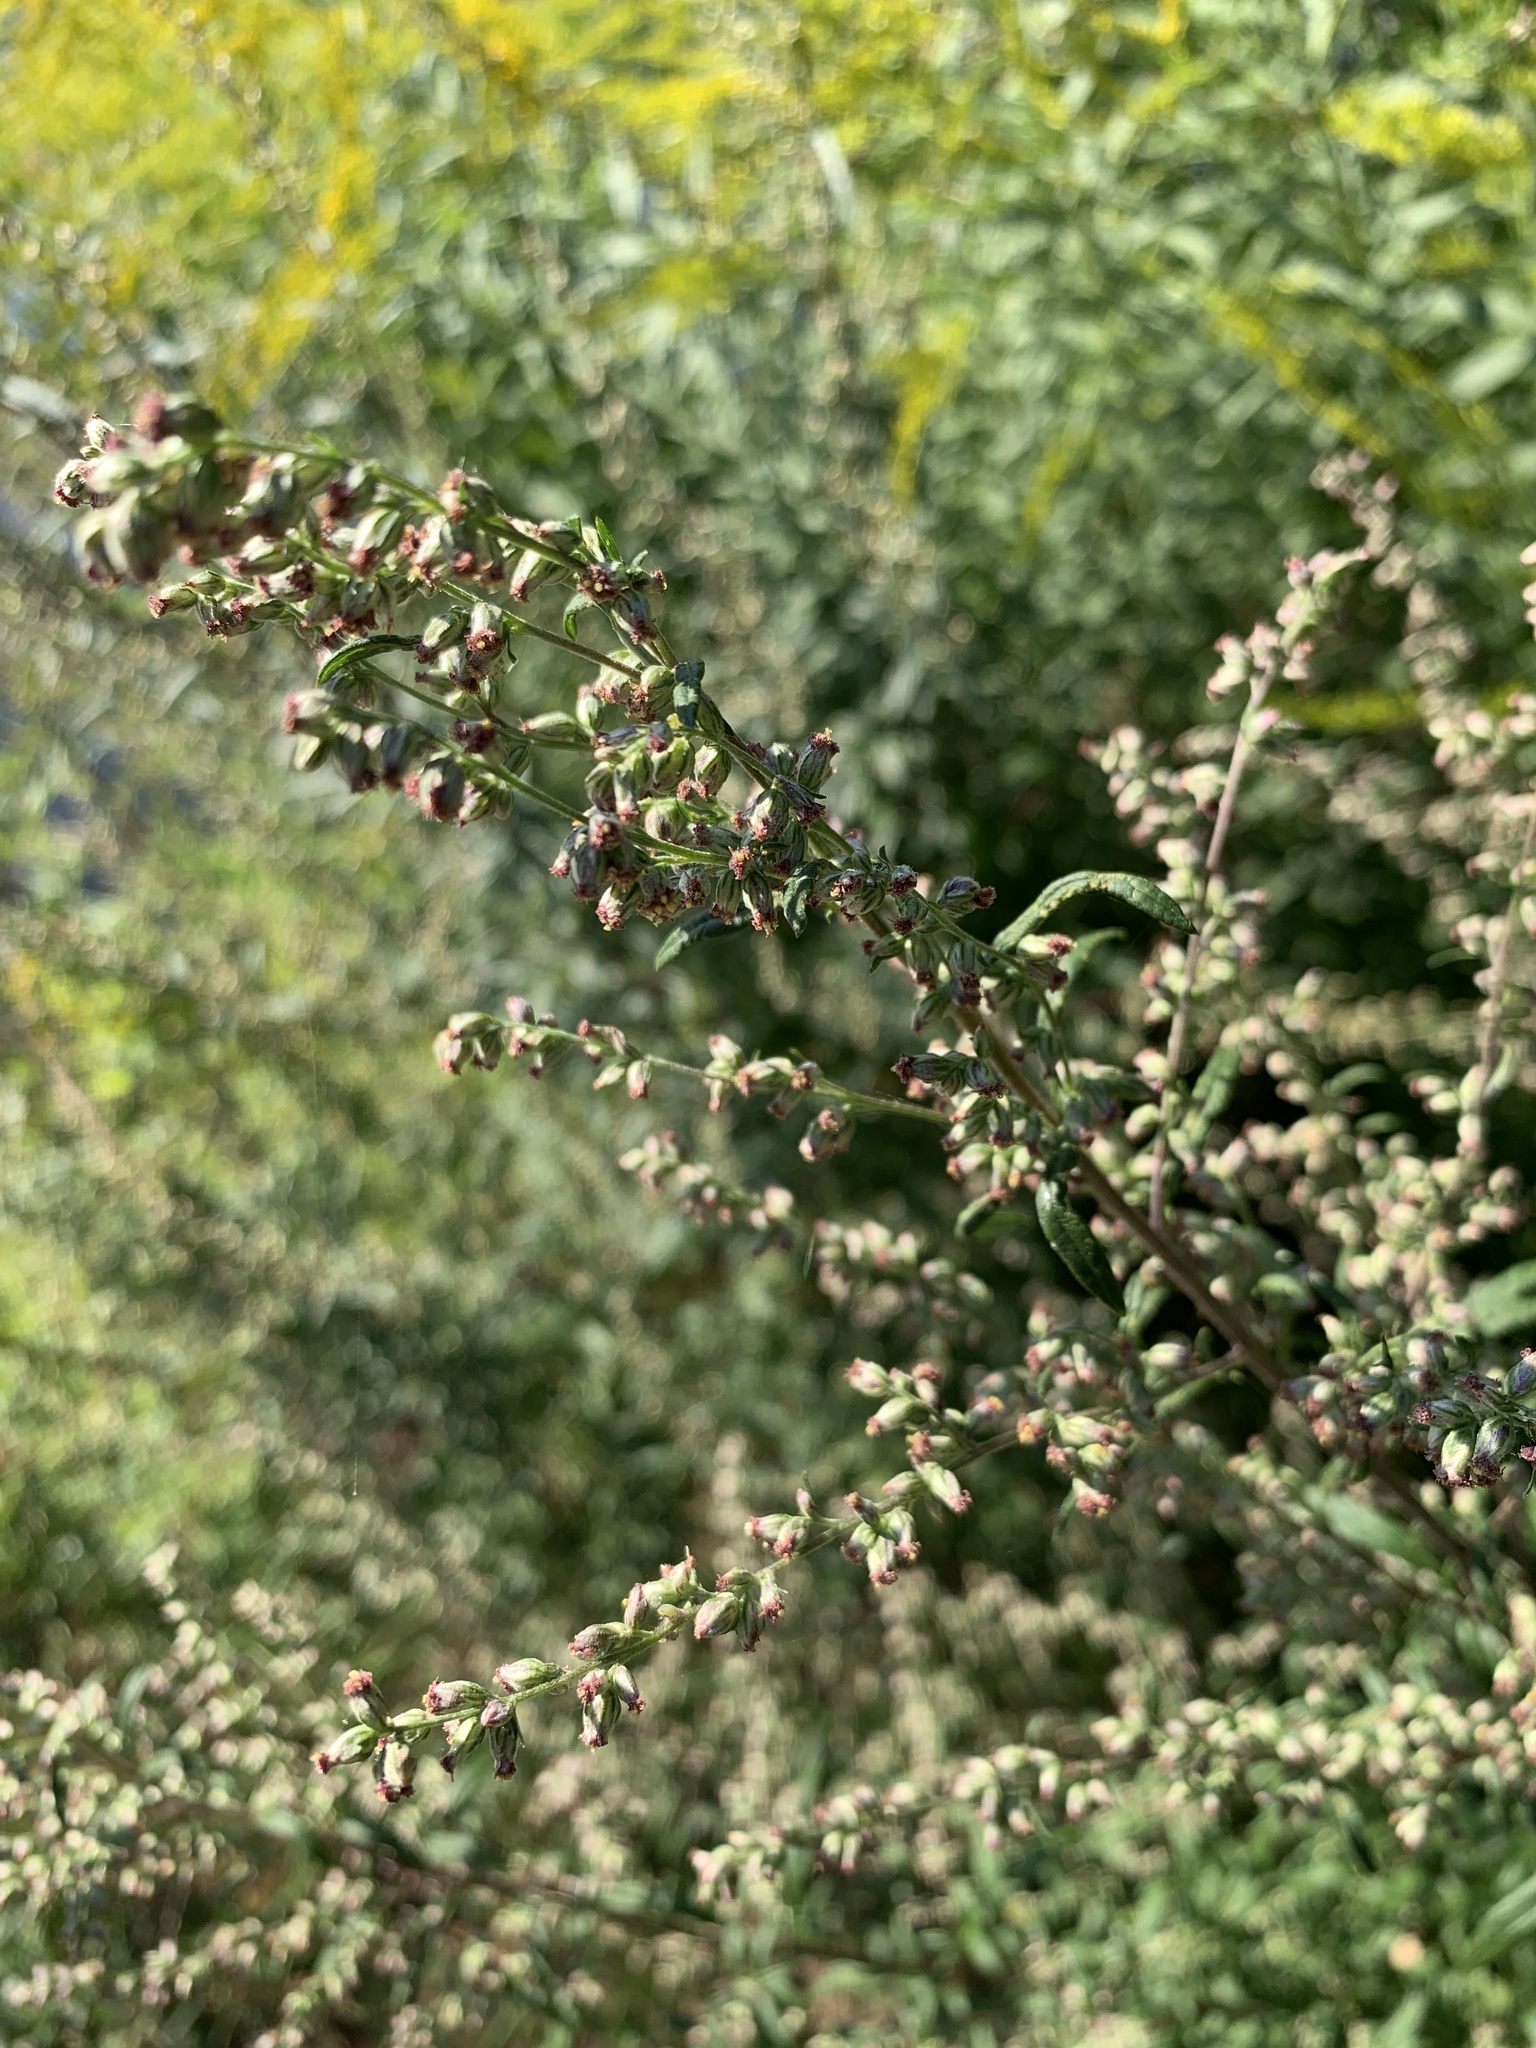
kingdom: Plantae
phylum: Tracheophyta
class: Magnoliopsida
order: Asterales
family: Asteraceae
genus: Artemisia
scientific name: Artemisia vulgaris
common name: Mugwort
